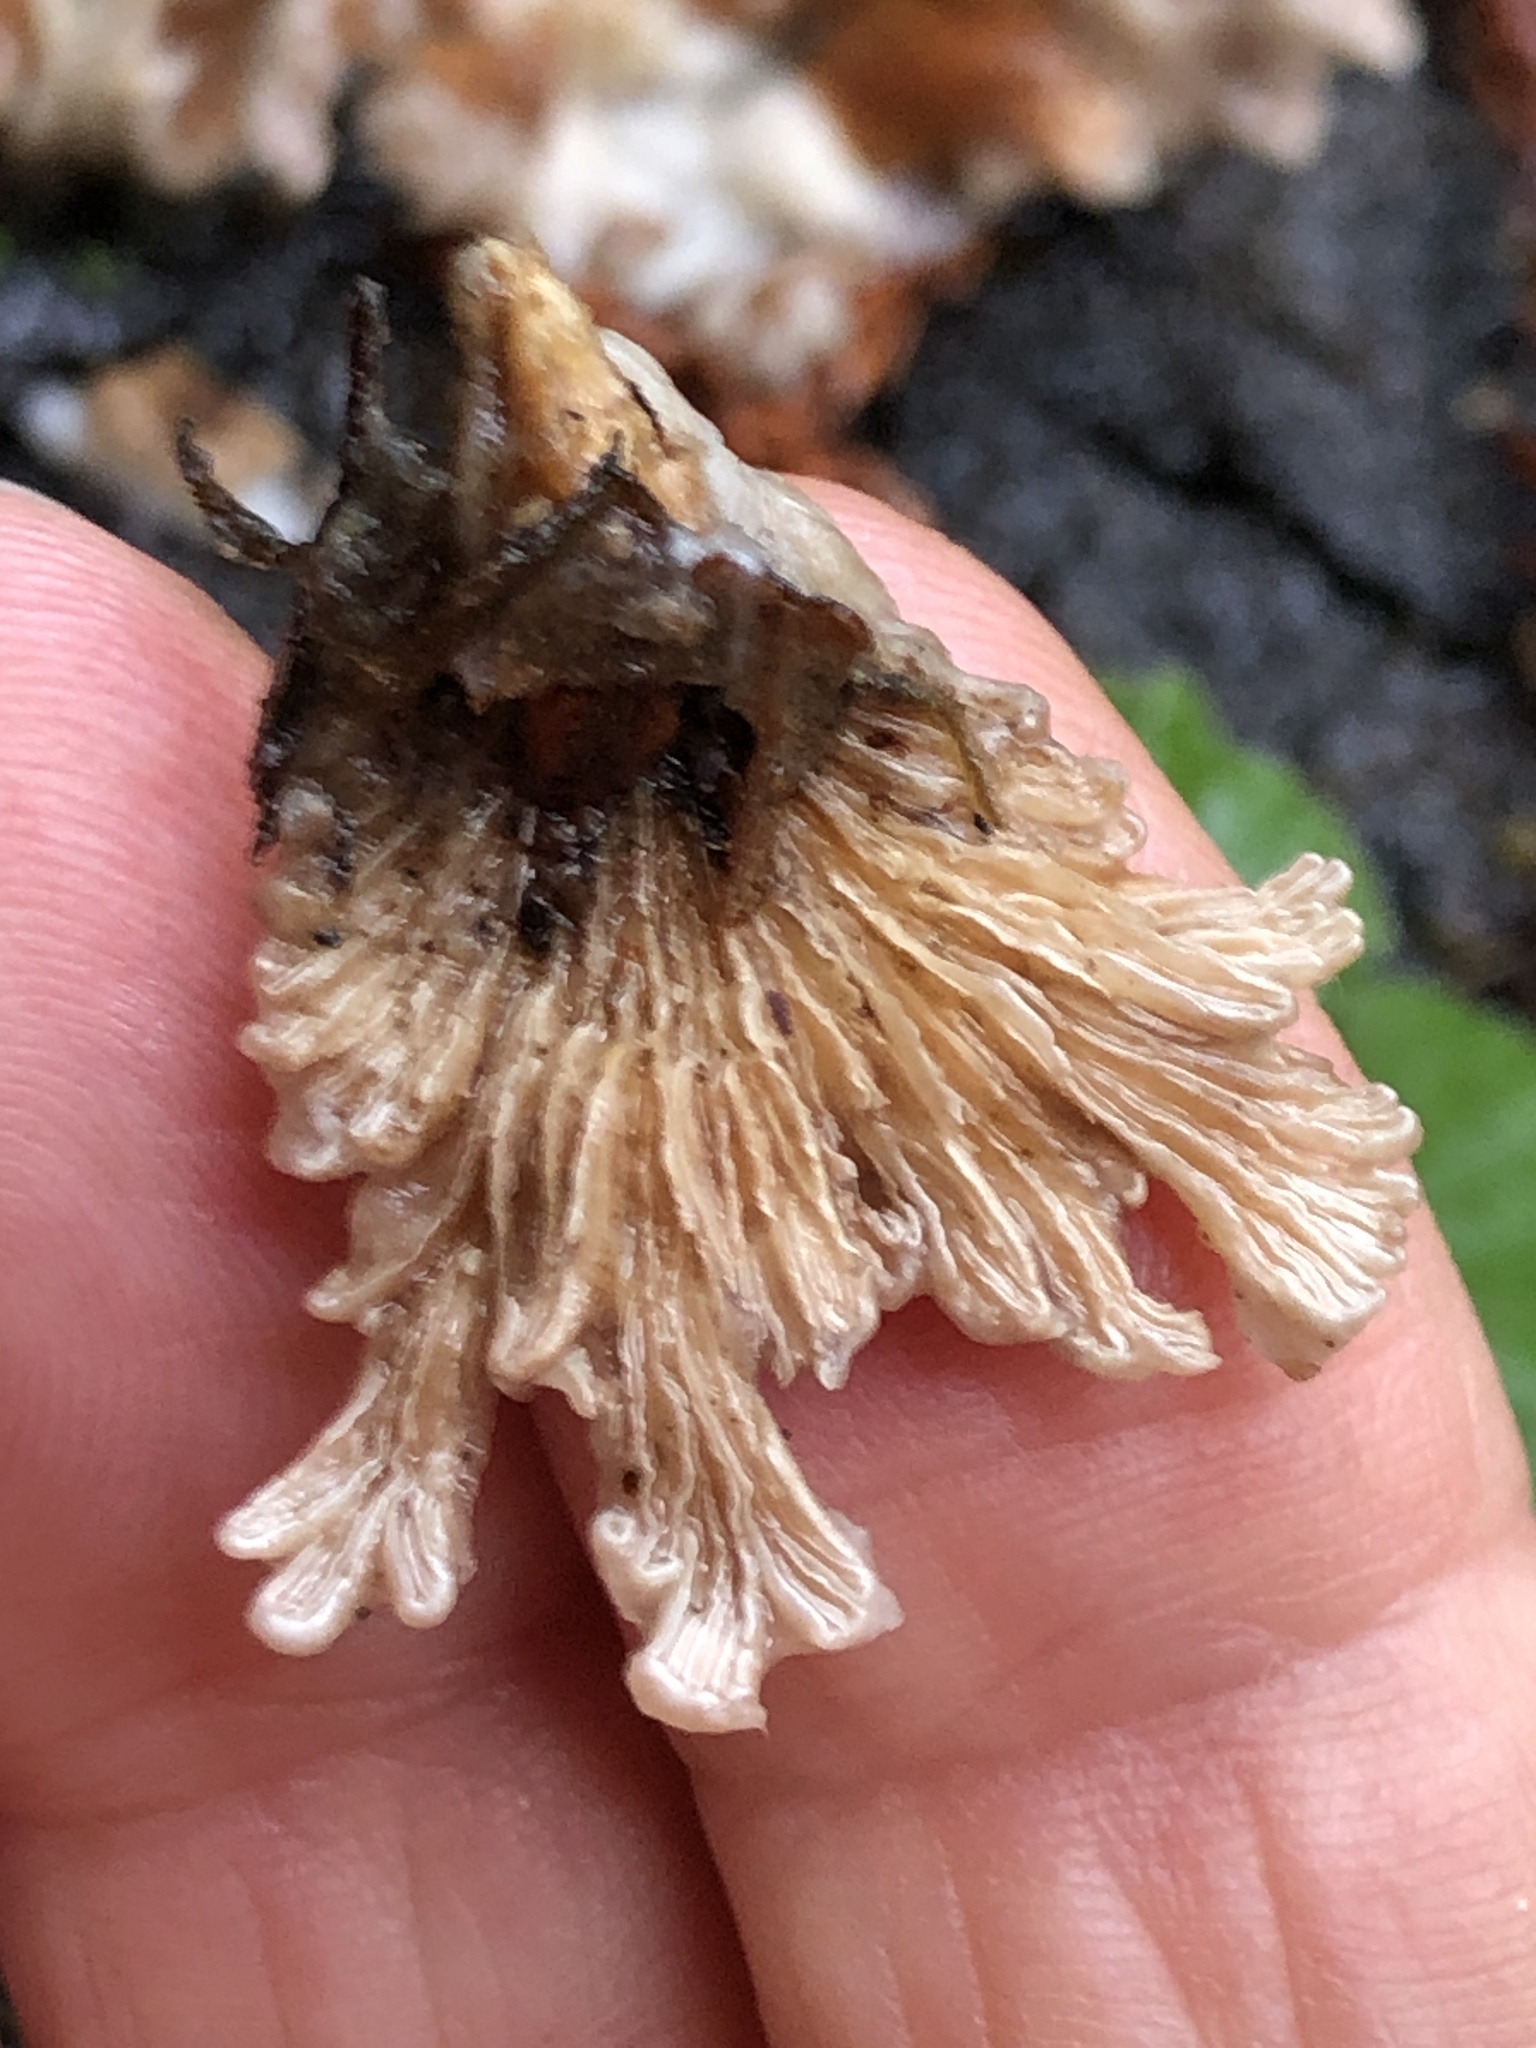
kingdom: Fungi
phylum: Basidiomycota
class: Agaricomycetes
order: Agaricales
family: Schizophyllaceae
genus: Schizophyllum
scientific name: Schizophyllum commune
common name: Common porecrust
